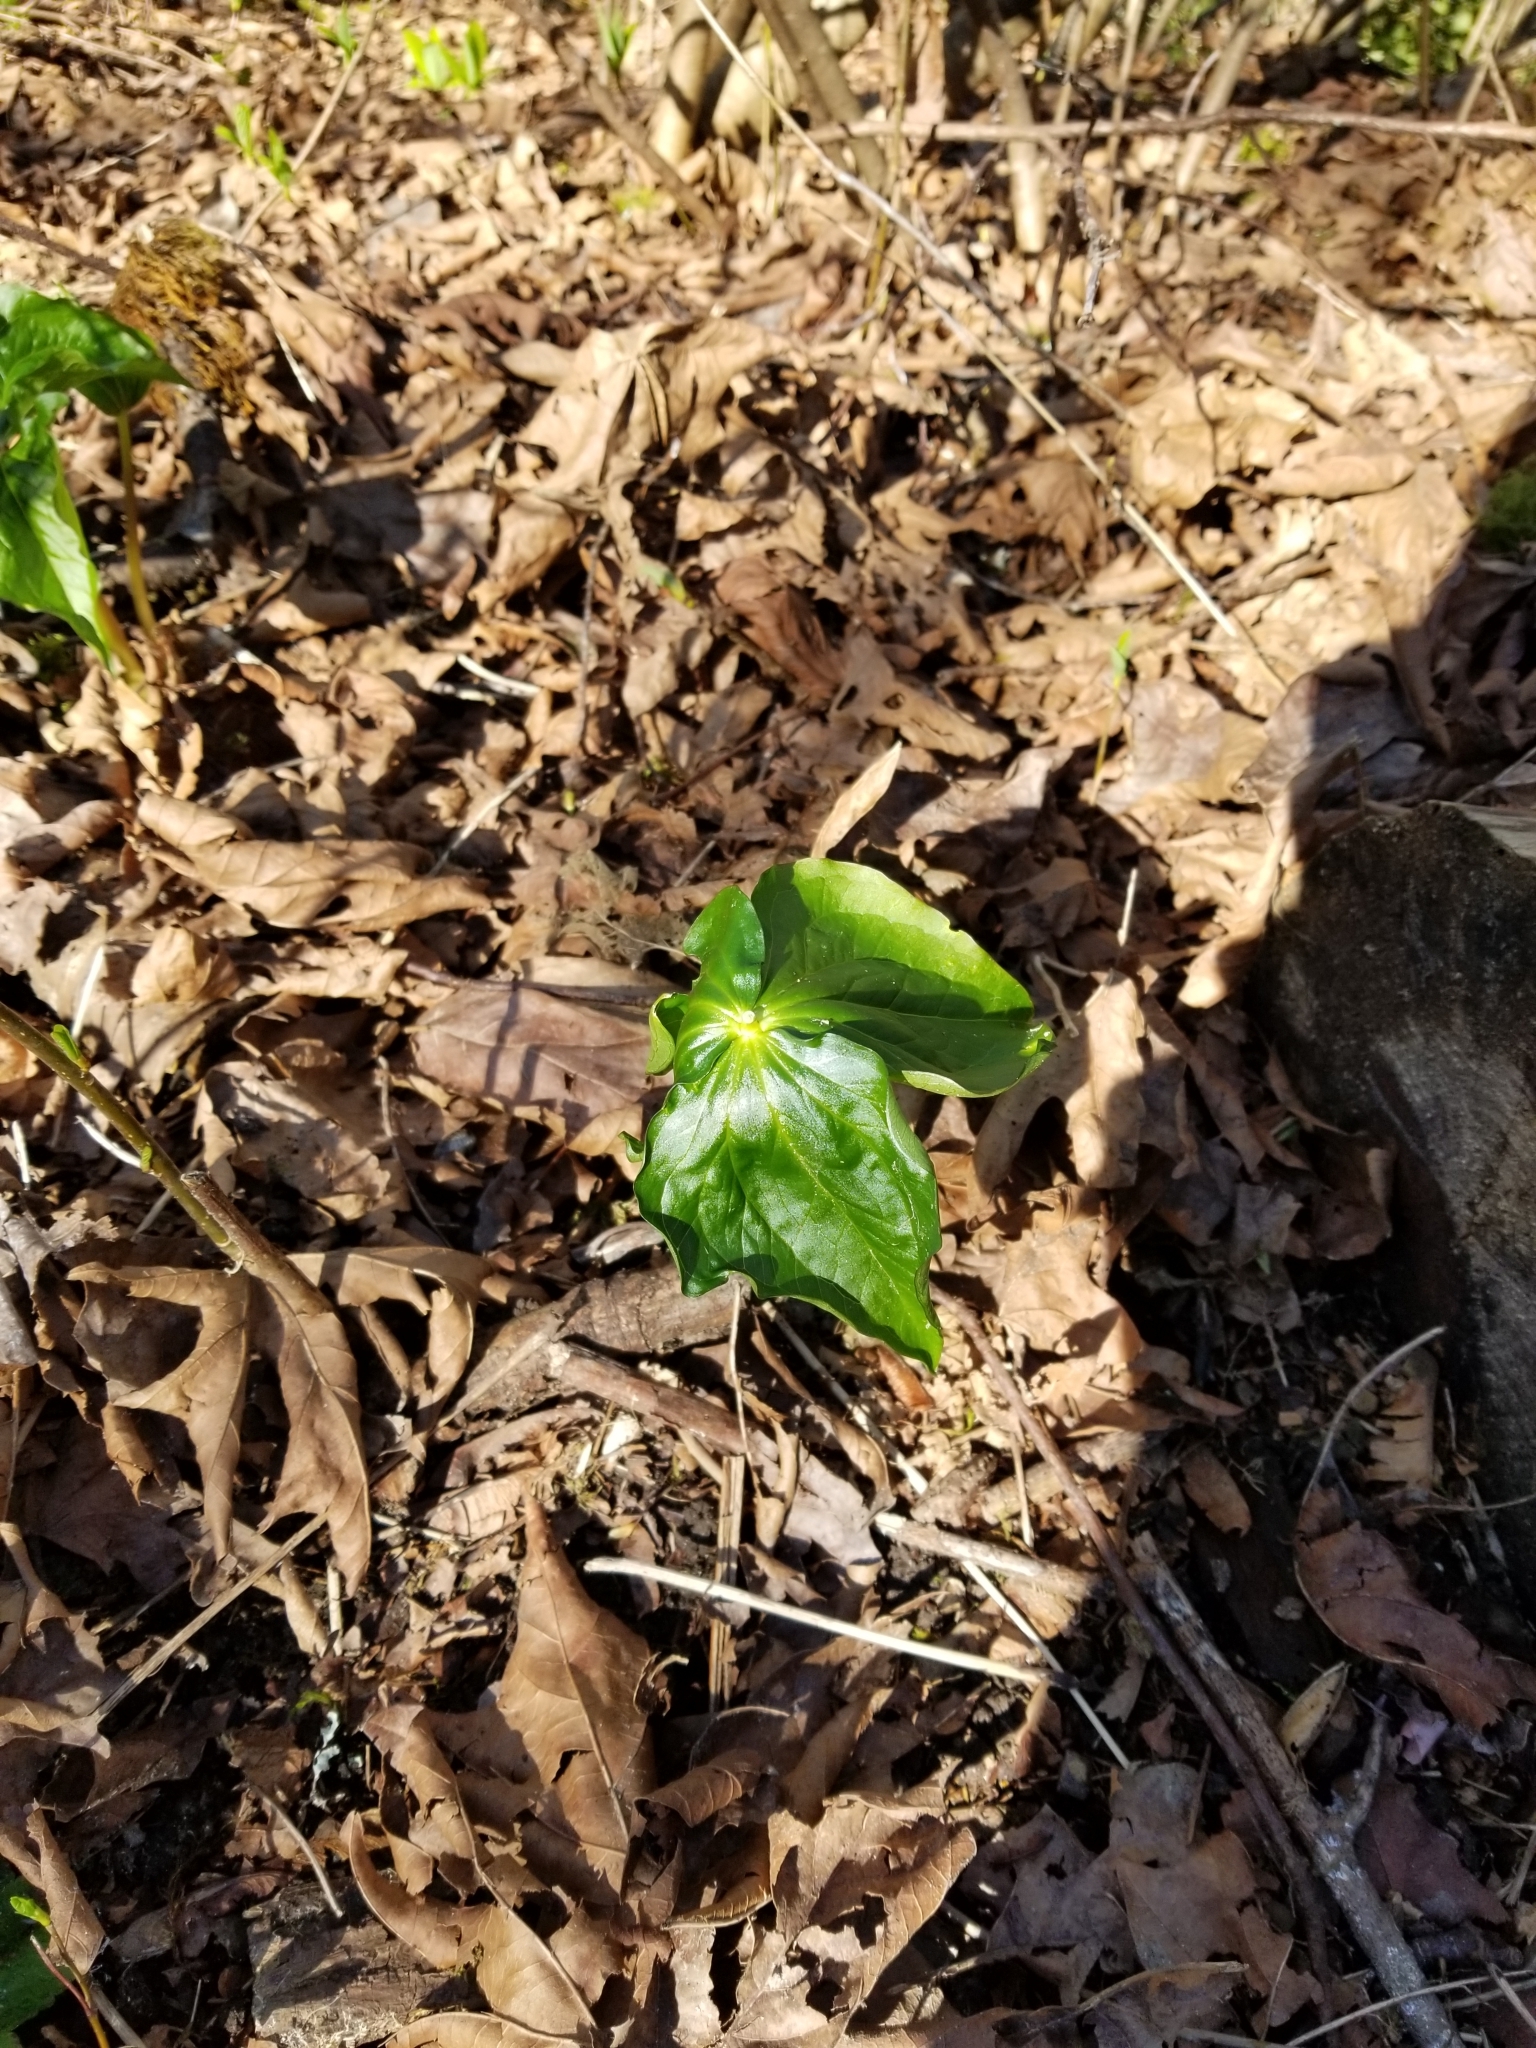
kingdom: Plantae
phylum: Tracheophyta
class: Liliopsida
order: Liliales
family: Melanthiaceae
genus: Trillium
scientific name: Trillium ovatum
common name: Pacific trillium
